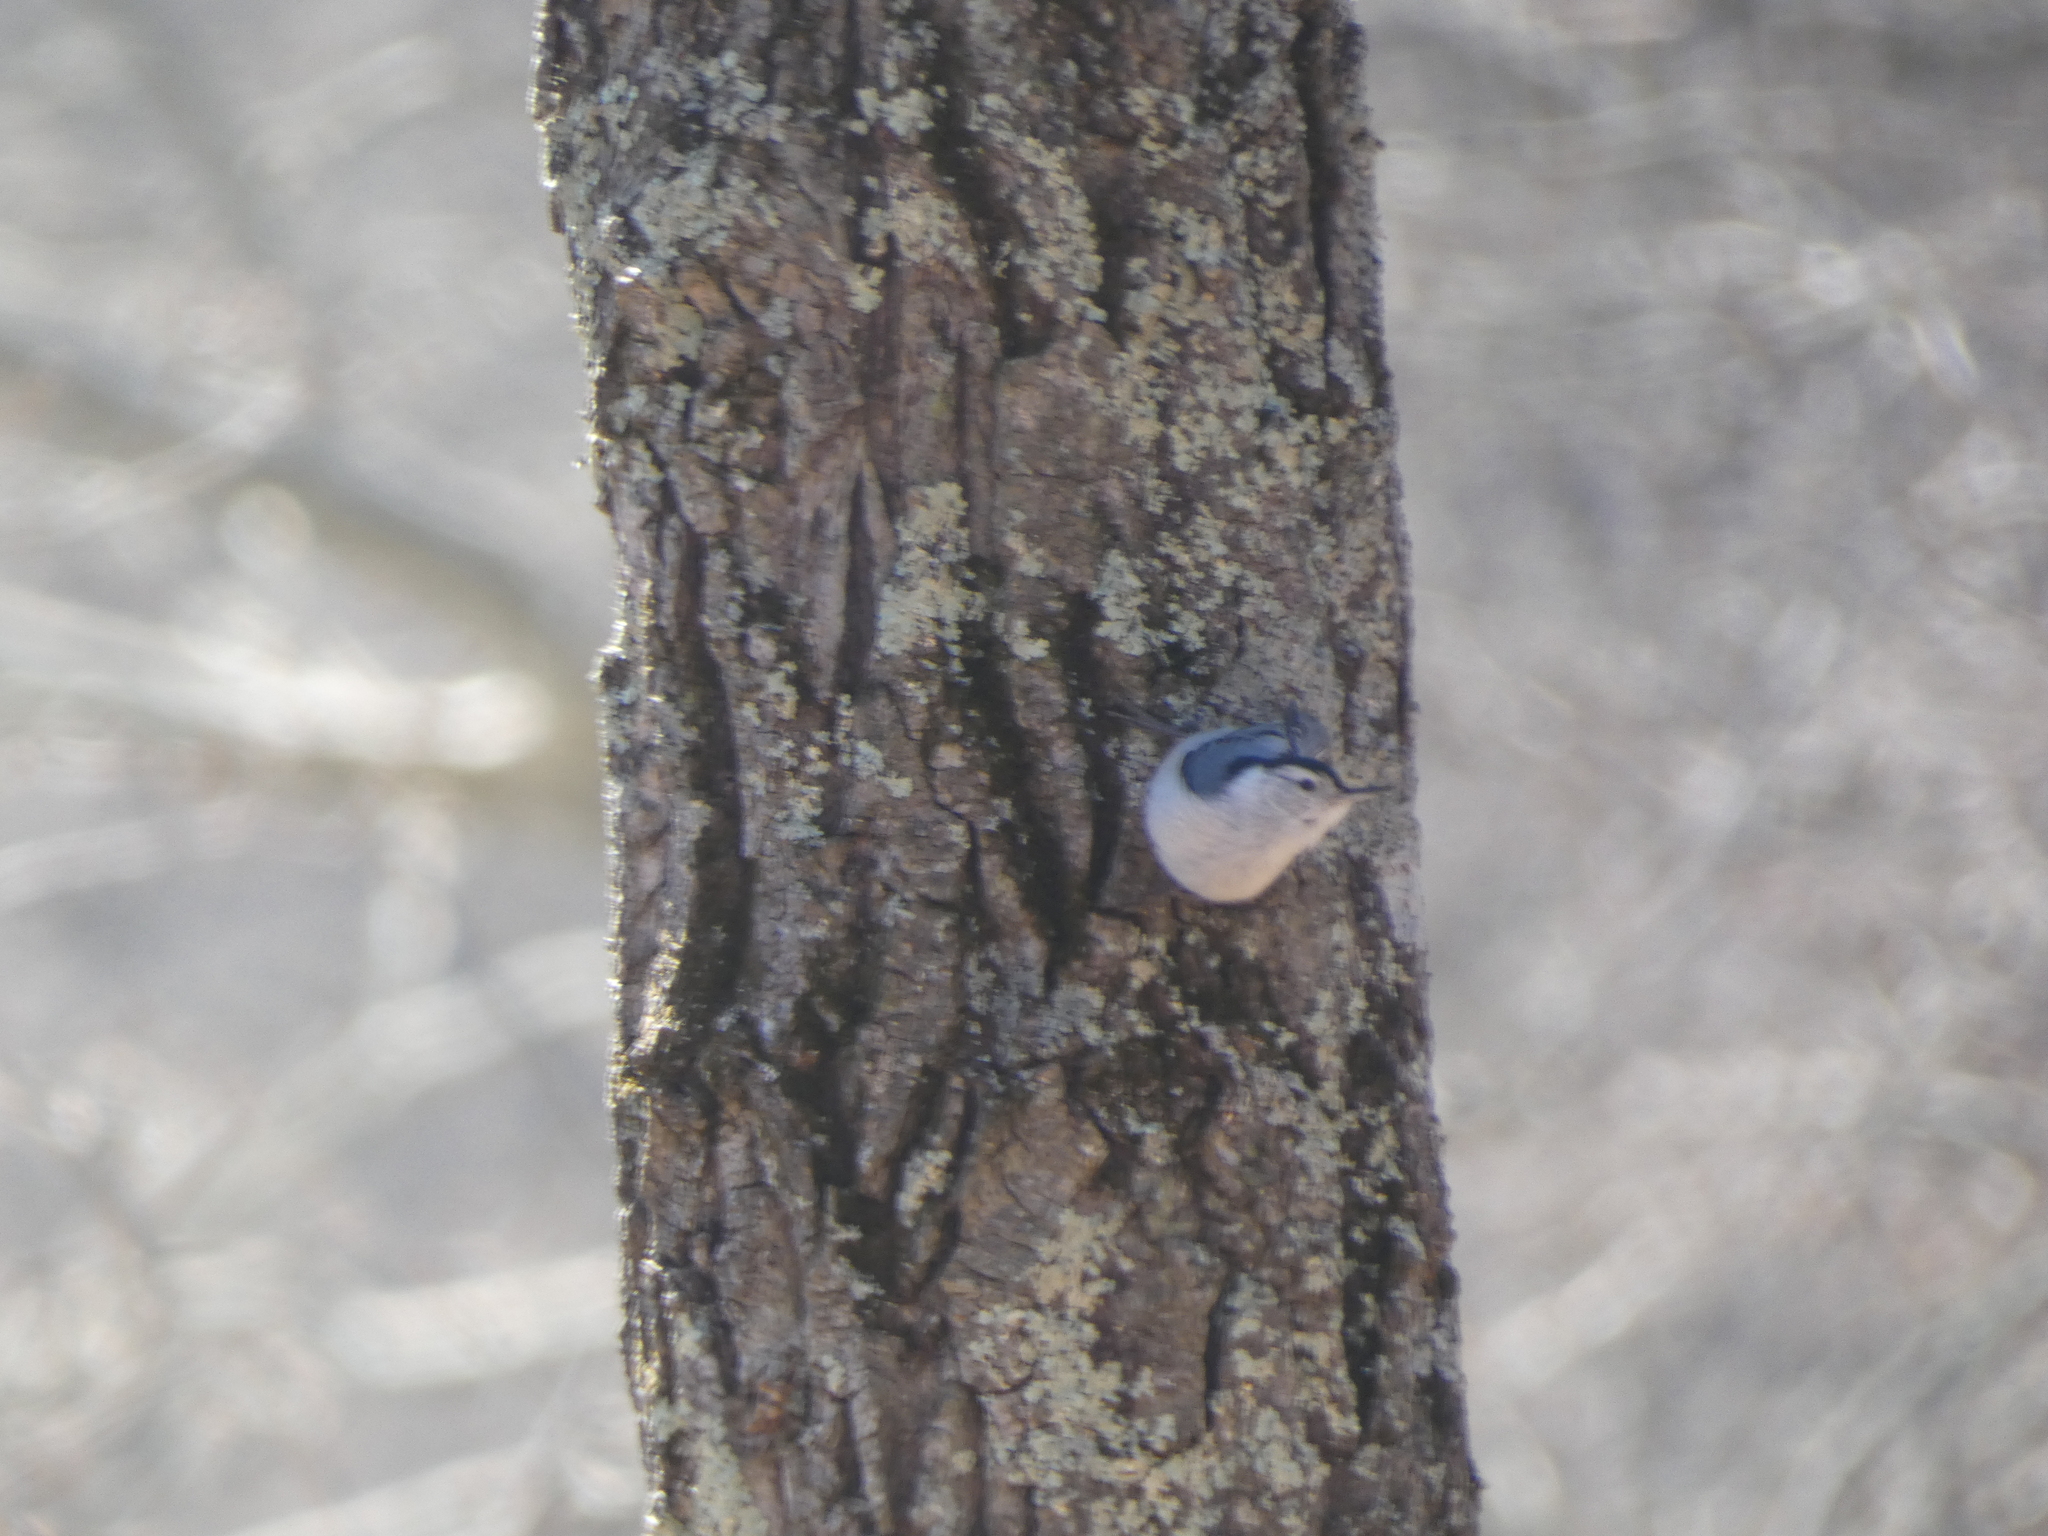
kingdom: Animalia
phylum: Chordata
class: Aves
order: Passeriformes
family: Sittidae
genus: Sitta
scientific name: Sitta carolinensis
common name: White-breasted nuthatch
